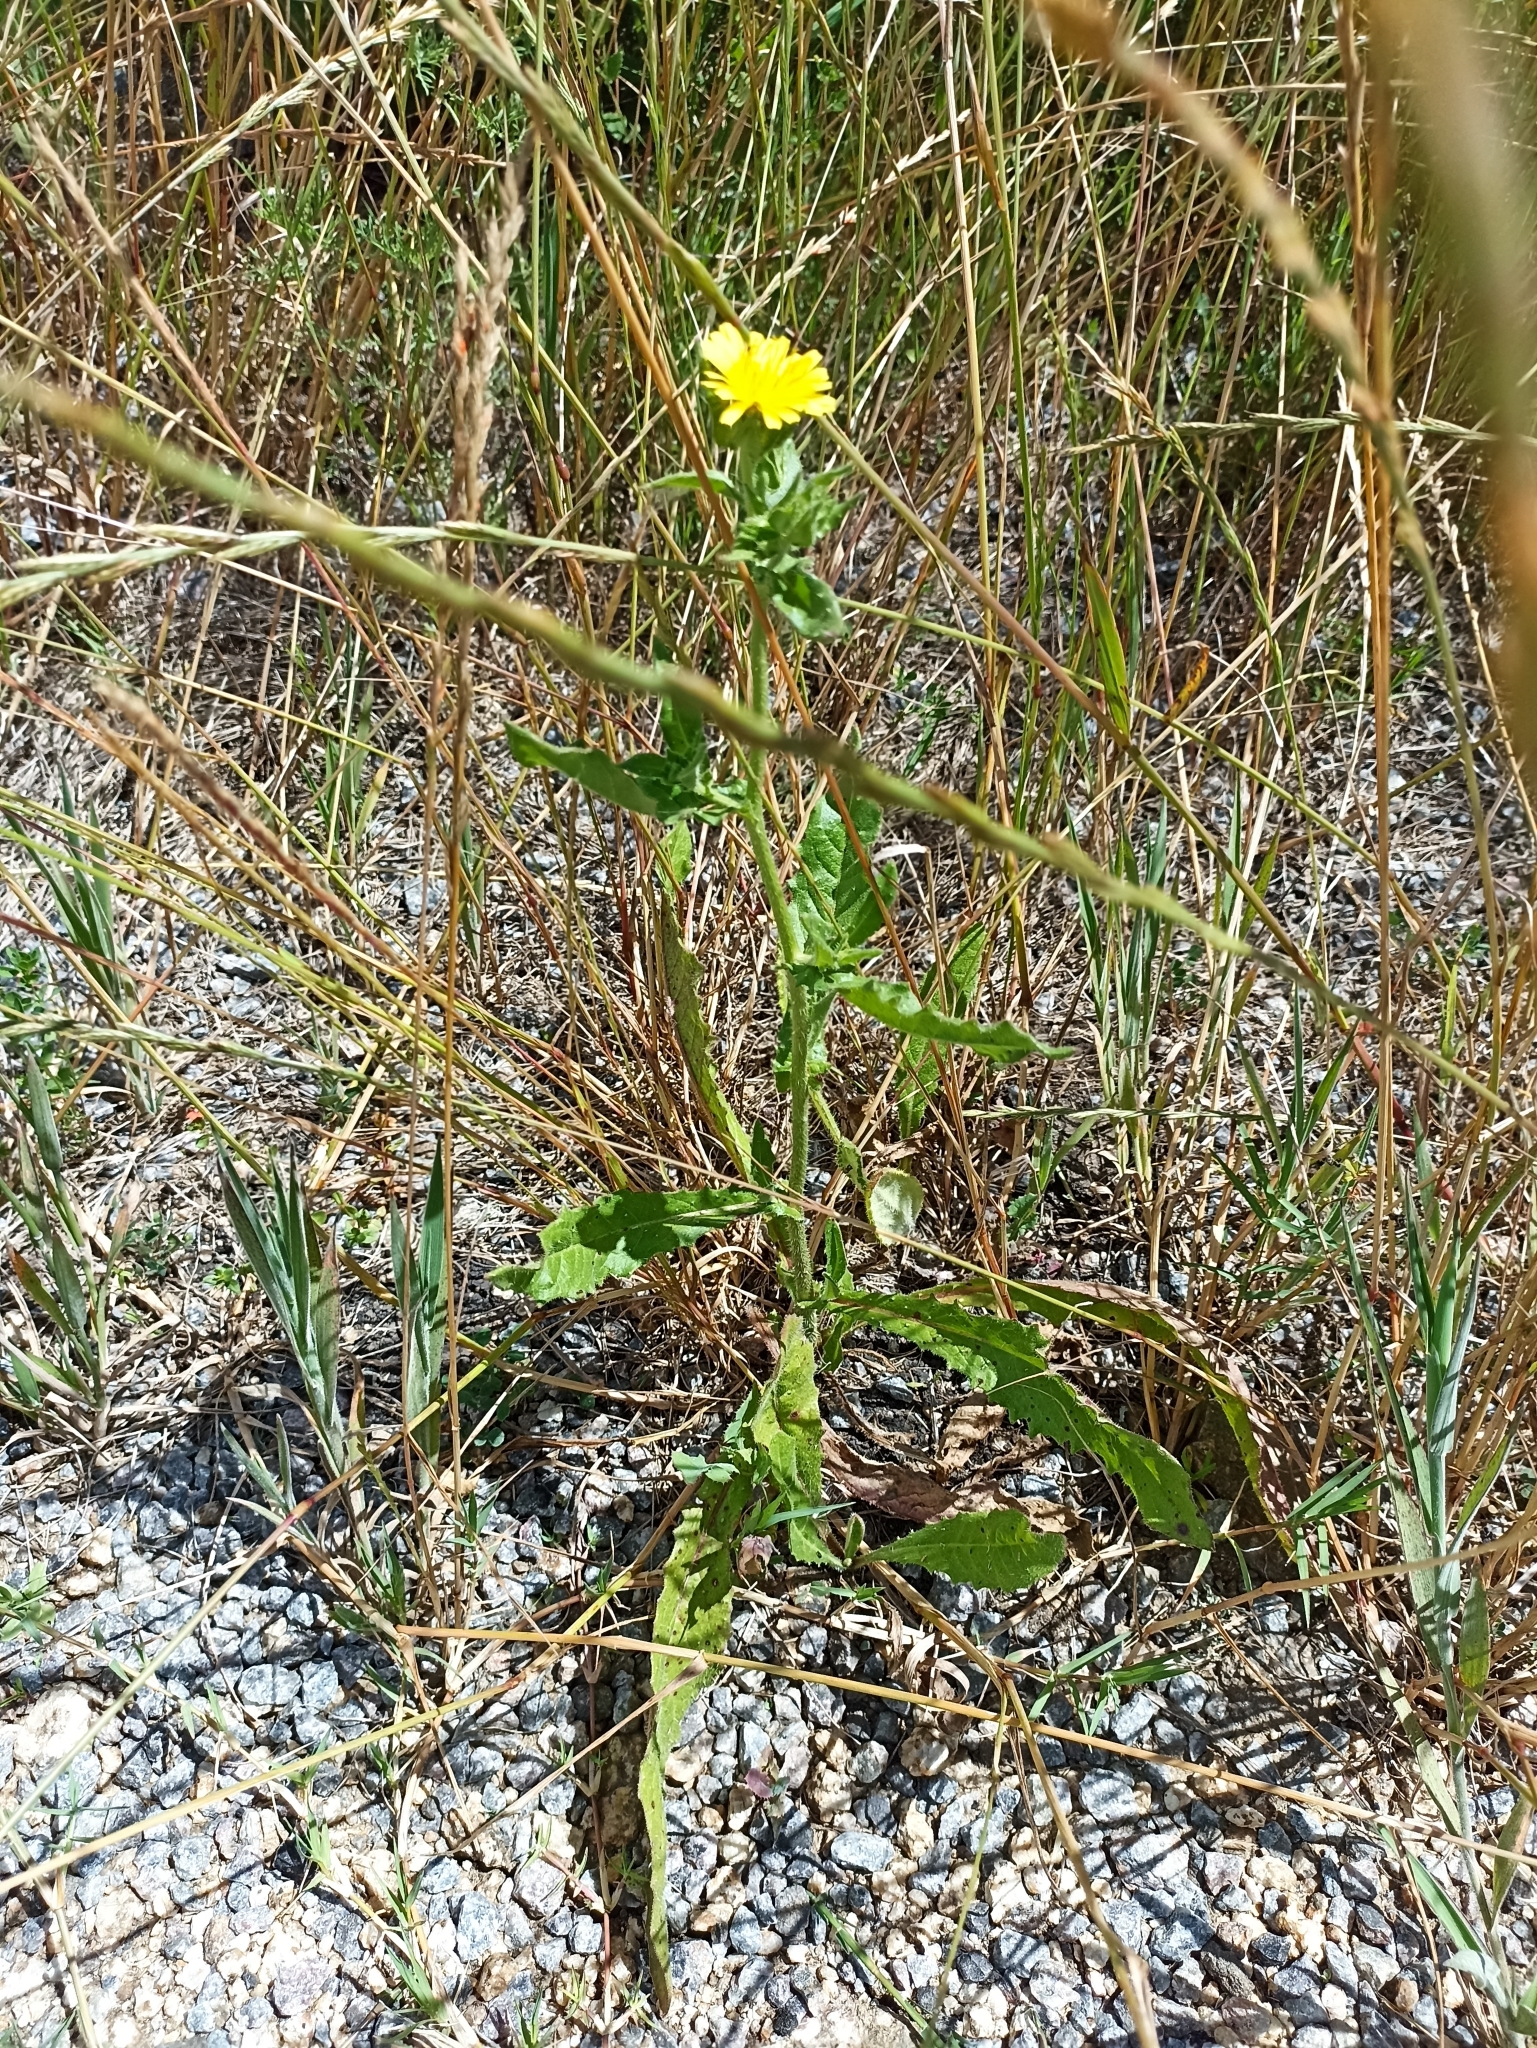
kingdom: Plantae
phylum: Tracheophyta
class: Magnoliopsida
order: Asterales
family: Asteraceae
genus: Helminthotheca
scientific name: Helminthotheca echioides
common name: Ox-tongue
